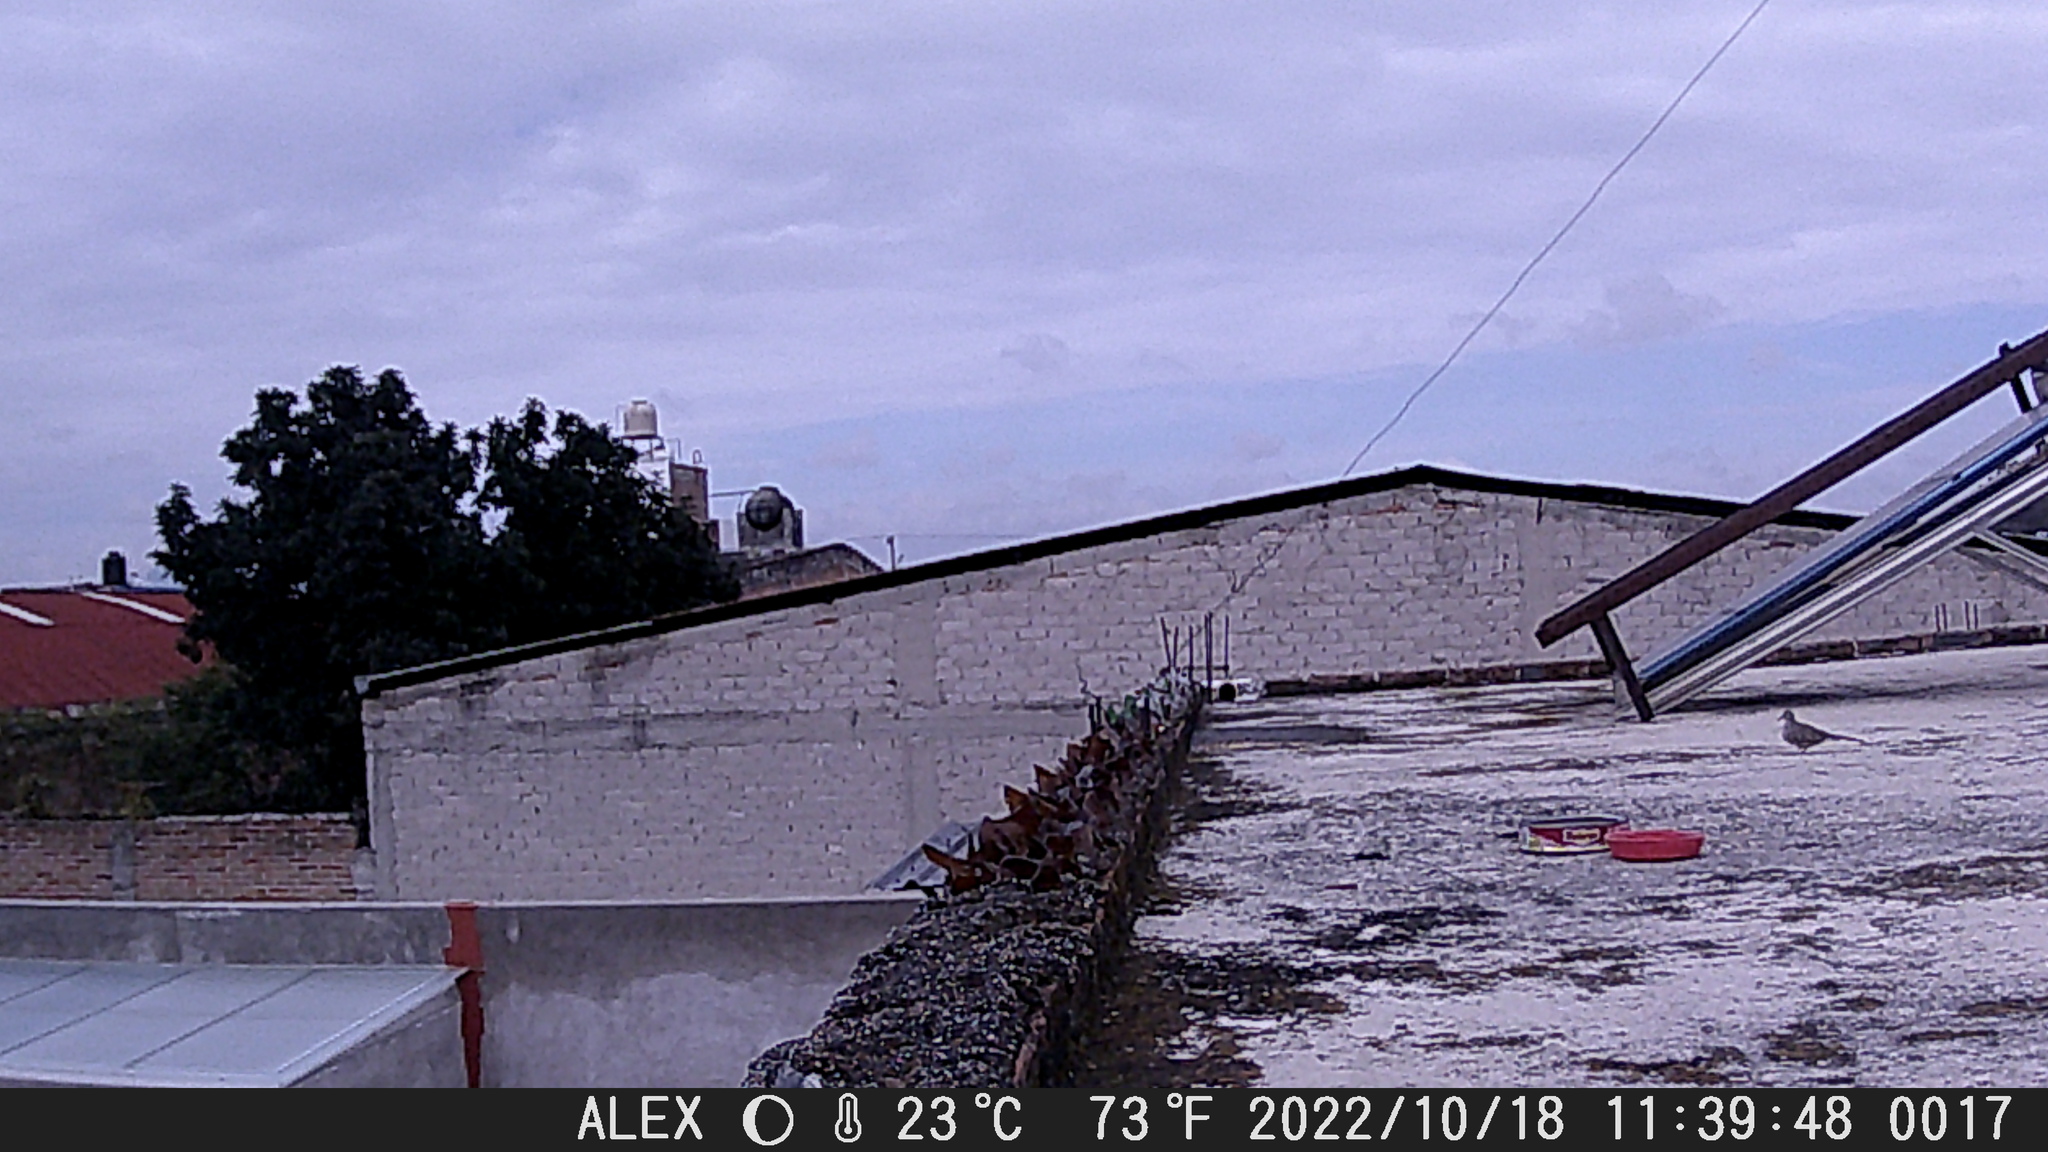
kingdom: Animalia
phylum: Chordata
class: Aves
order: Columbiformes
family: Columbidae
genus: Columbina
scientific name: Columbina inca
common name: Inca dove
